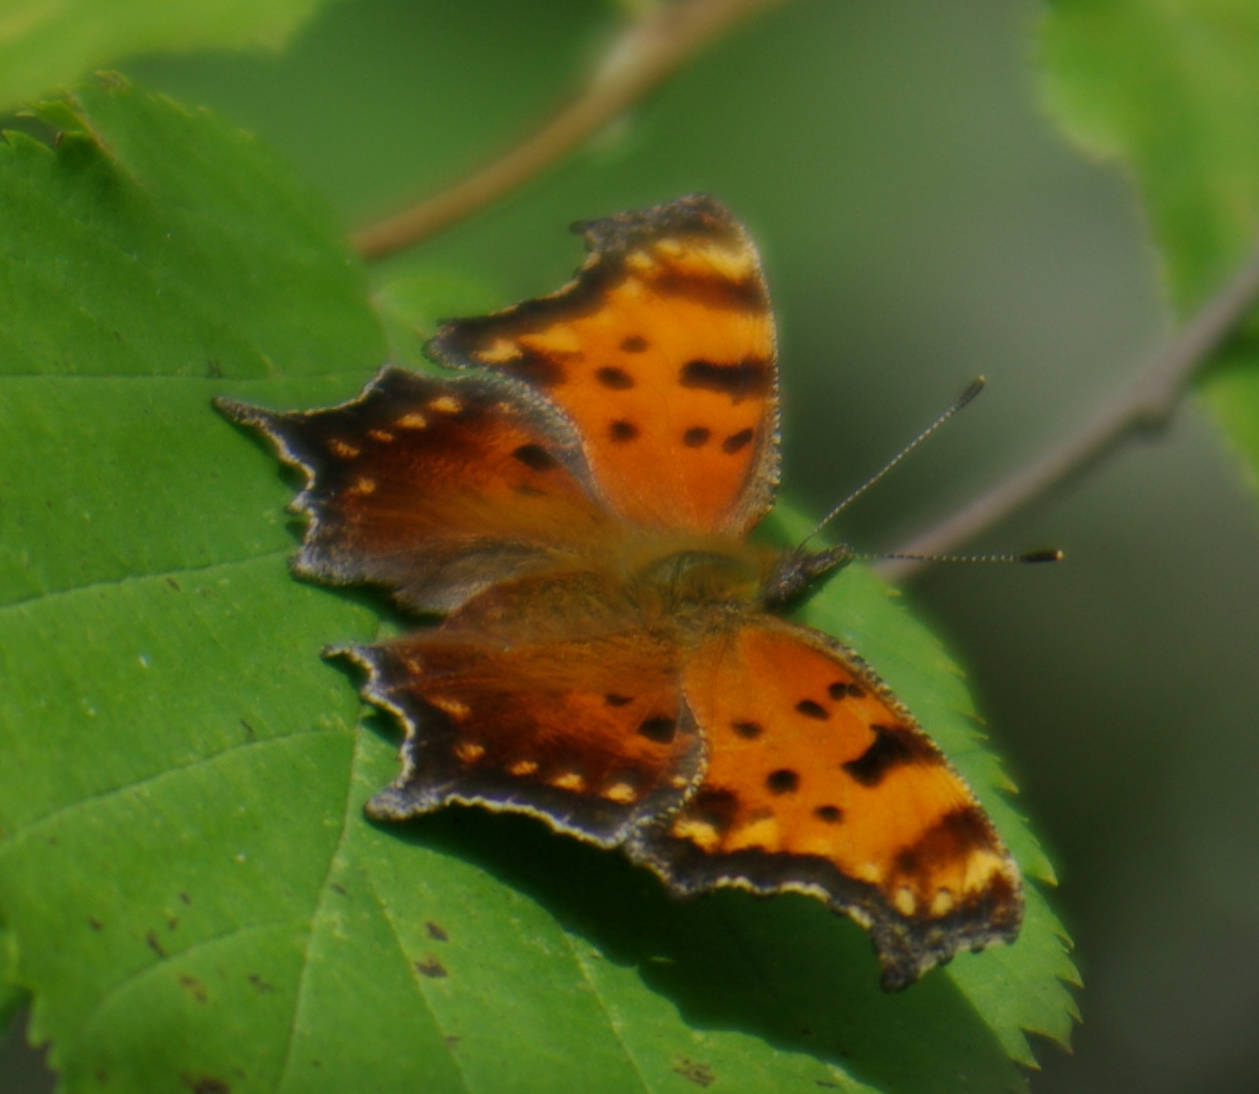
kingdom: Animalia
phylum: Arthropoda
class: Insecta
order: Lepidoptera
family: Nymphalidae
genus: Polygonia
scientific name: Polygonia progne
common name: Gray comma
